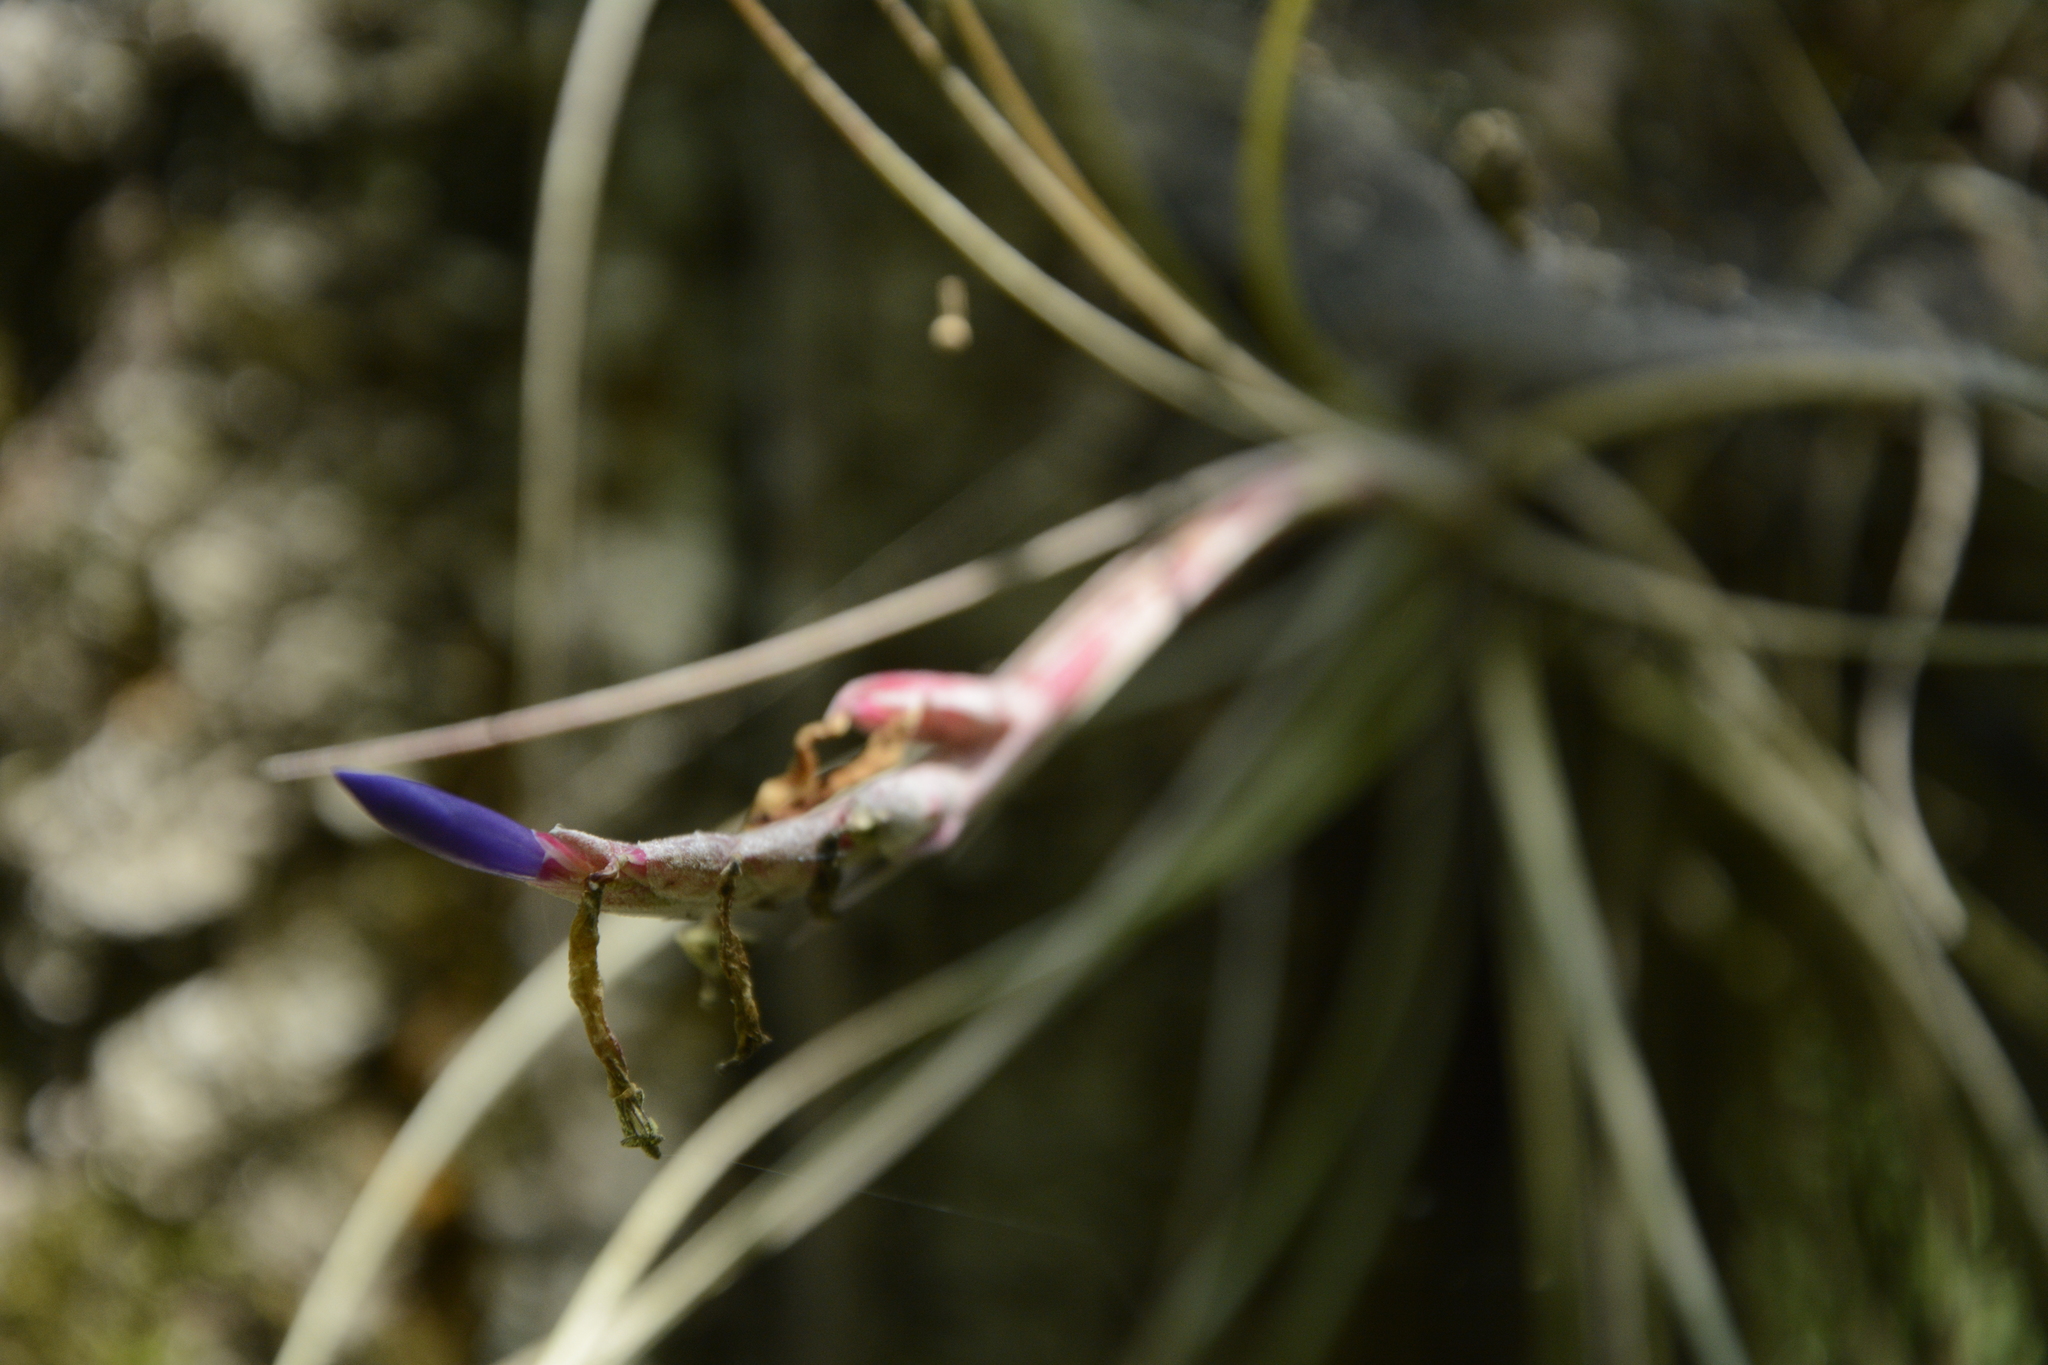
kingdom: Plantae
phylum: Tracheophyta
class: Liliopsida
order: Poales
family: Bromeliaceae
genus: Tillandsia
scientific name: Tillandsia bartramii
